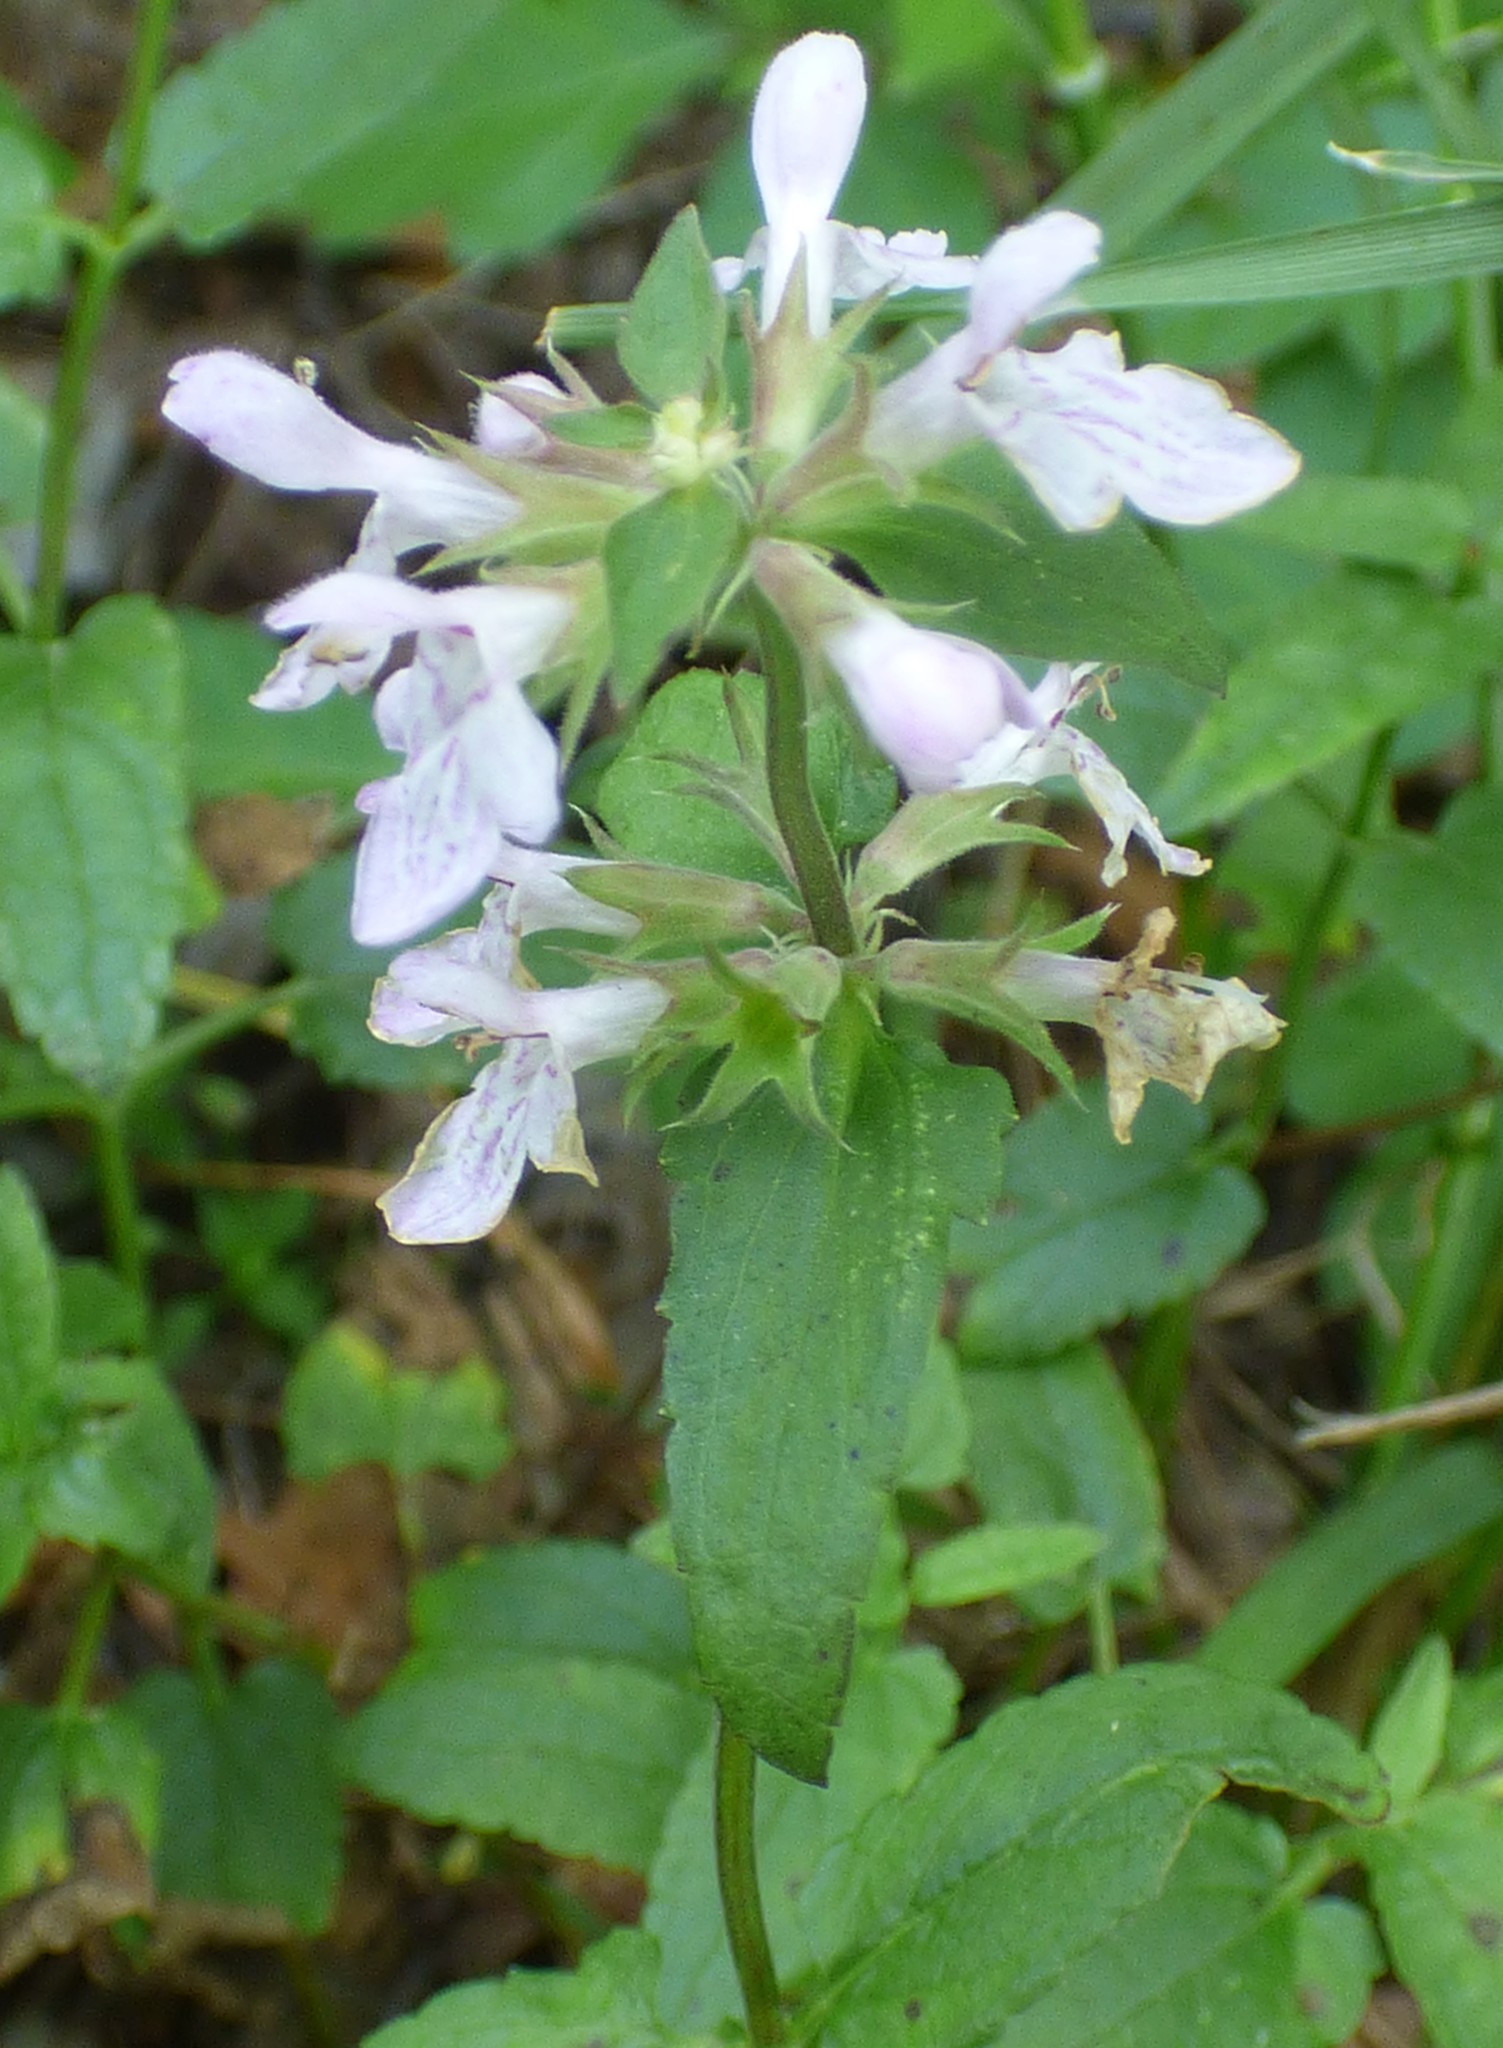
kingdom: Plantae
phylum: Tracheophyta
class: Magnoliopsida
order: Lamiales
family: Lamiaceae
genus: Stachys
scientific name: Stachys floridana
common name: Florida betony
